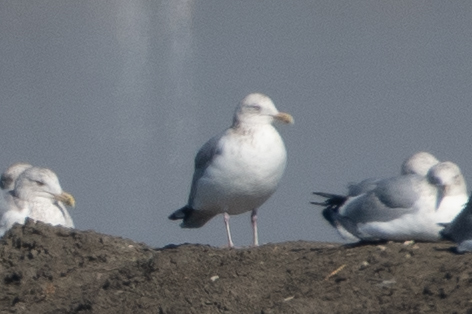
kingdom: Animalia
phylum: Chordata
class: Aves
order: Charadriiformes
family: Laridae
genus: Larus
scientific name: Larus argentatus
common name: Herring gull
